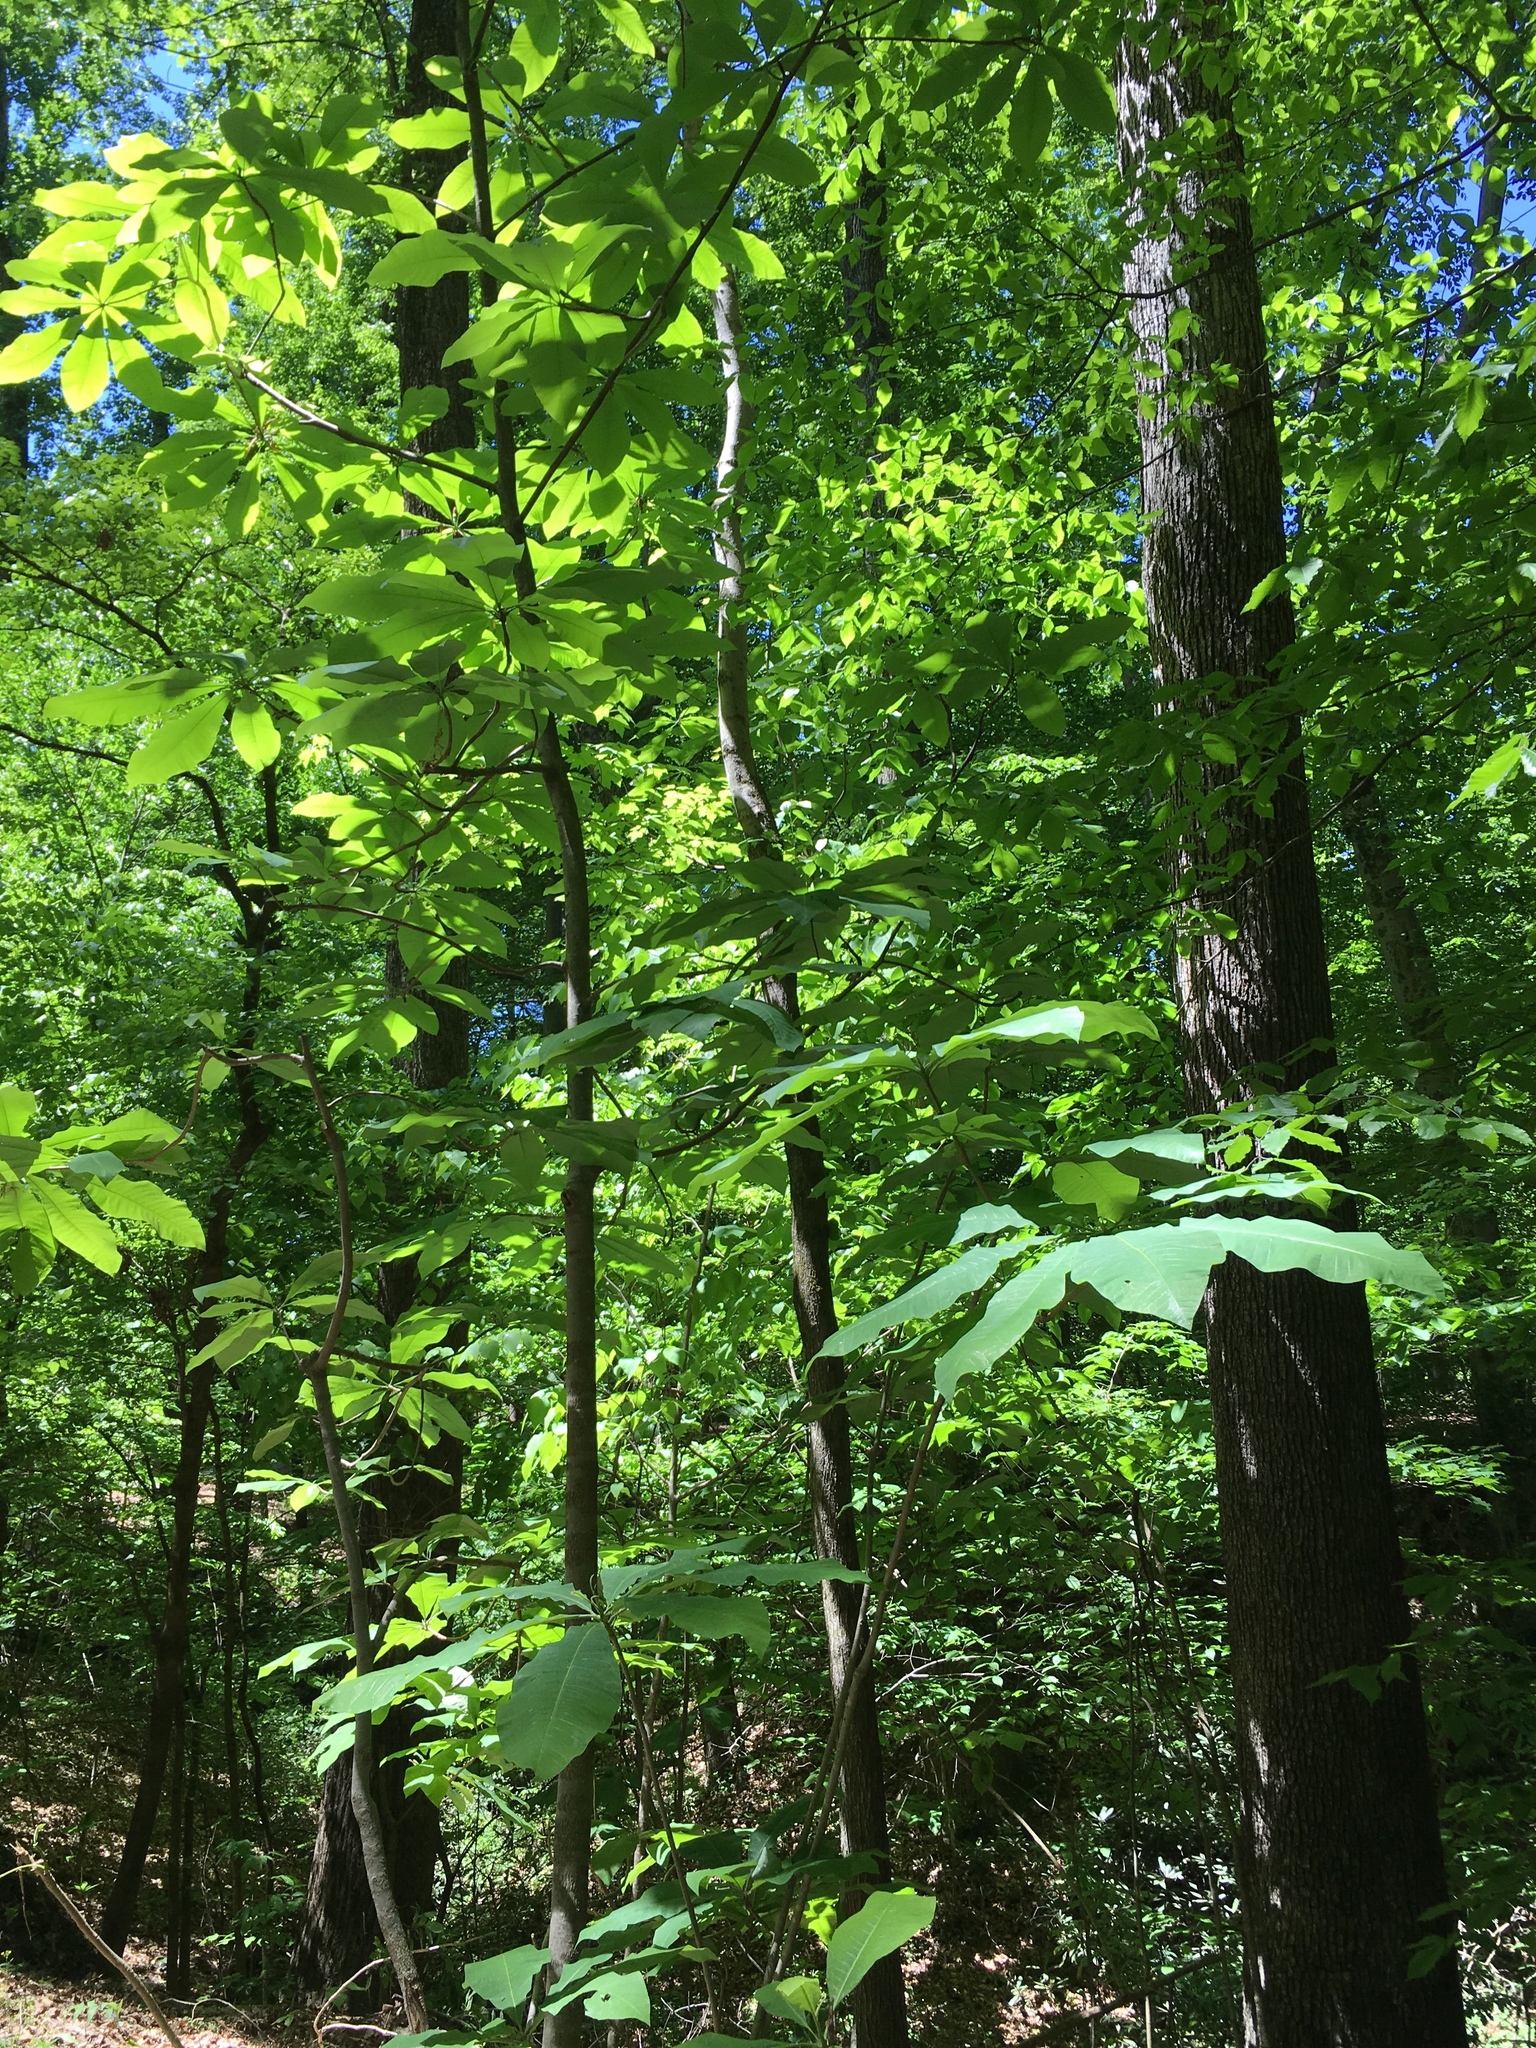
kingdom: Plantae
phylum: Tracheophyta
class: Magnoliopsida
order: Magnoliales
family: Magnoliaceae
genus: Magnolia
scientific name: Magnolia tripetala
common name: Umbrella magnolia
